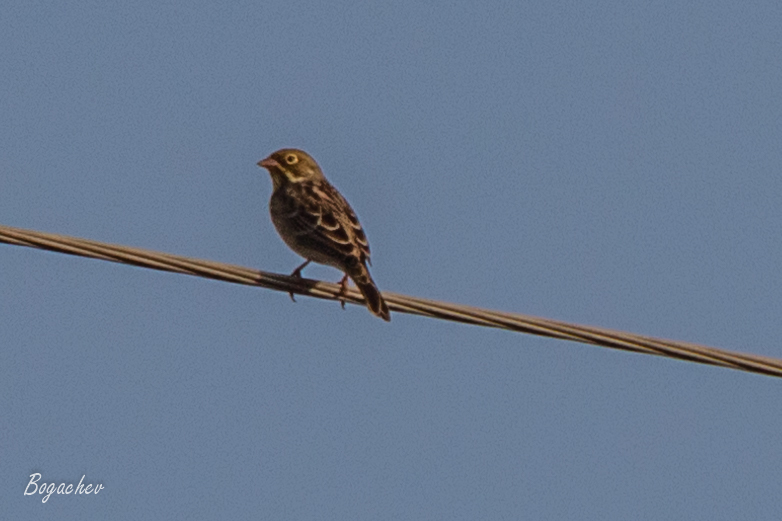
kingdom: Animalia
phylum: Chordata
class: Aves
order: Passeriformes
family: Emberizidae
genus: Emberiza
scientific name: Emberiza hortulana
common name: Ortolan bunting
